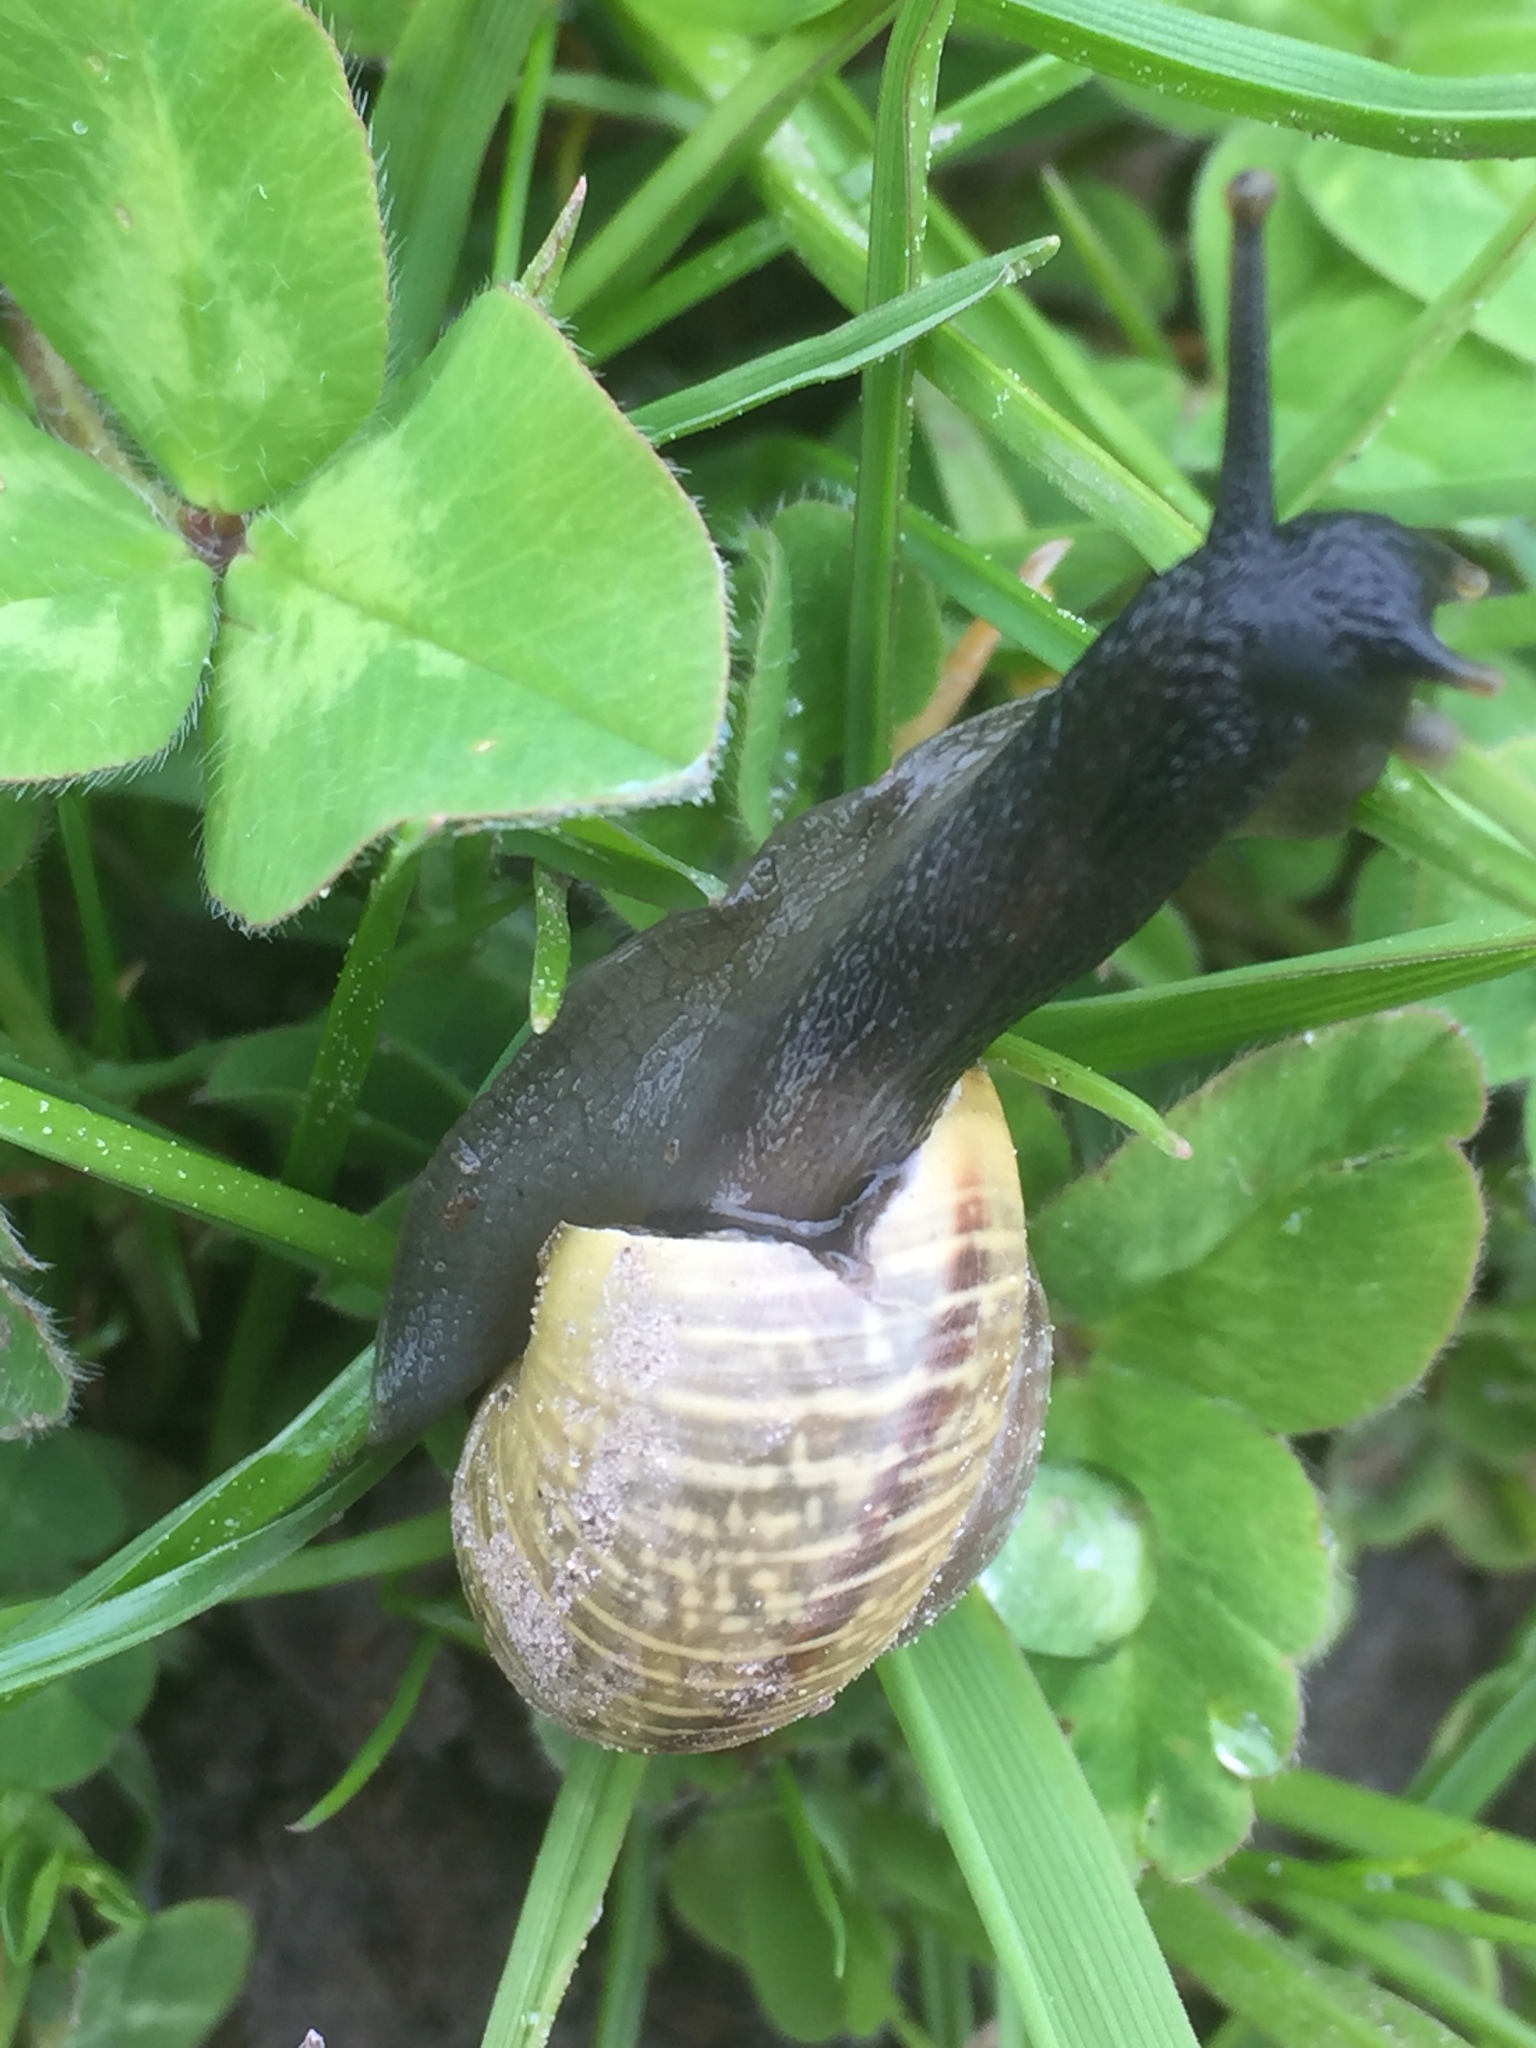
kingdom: Animalia
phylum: Mollusca
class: Gastropoda
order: Stylommatophora
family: Helicidae
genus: Arianta
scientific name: Arianta arbustorum
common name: Copse snail
